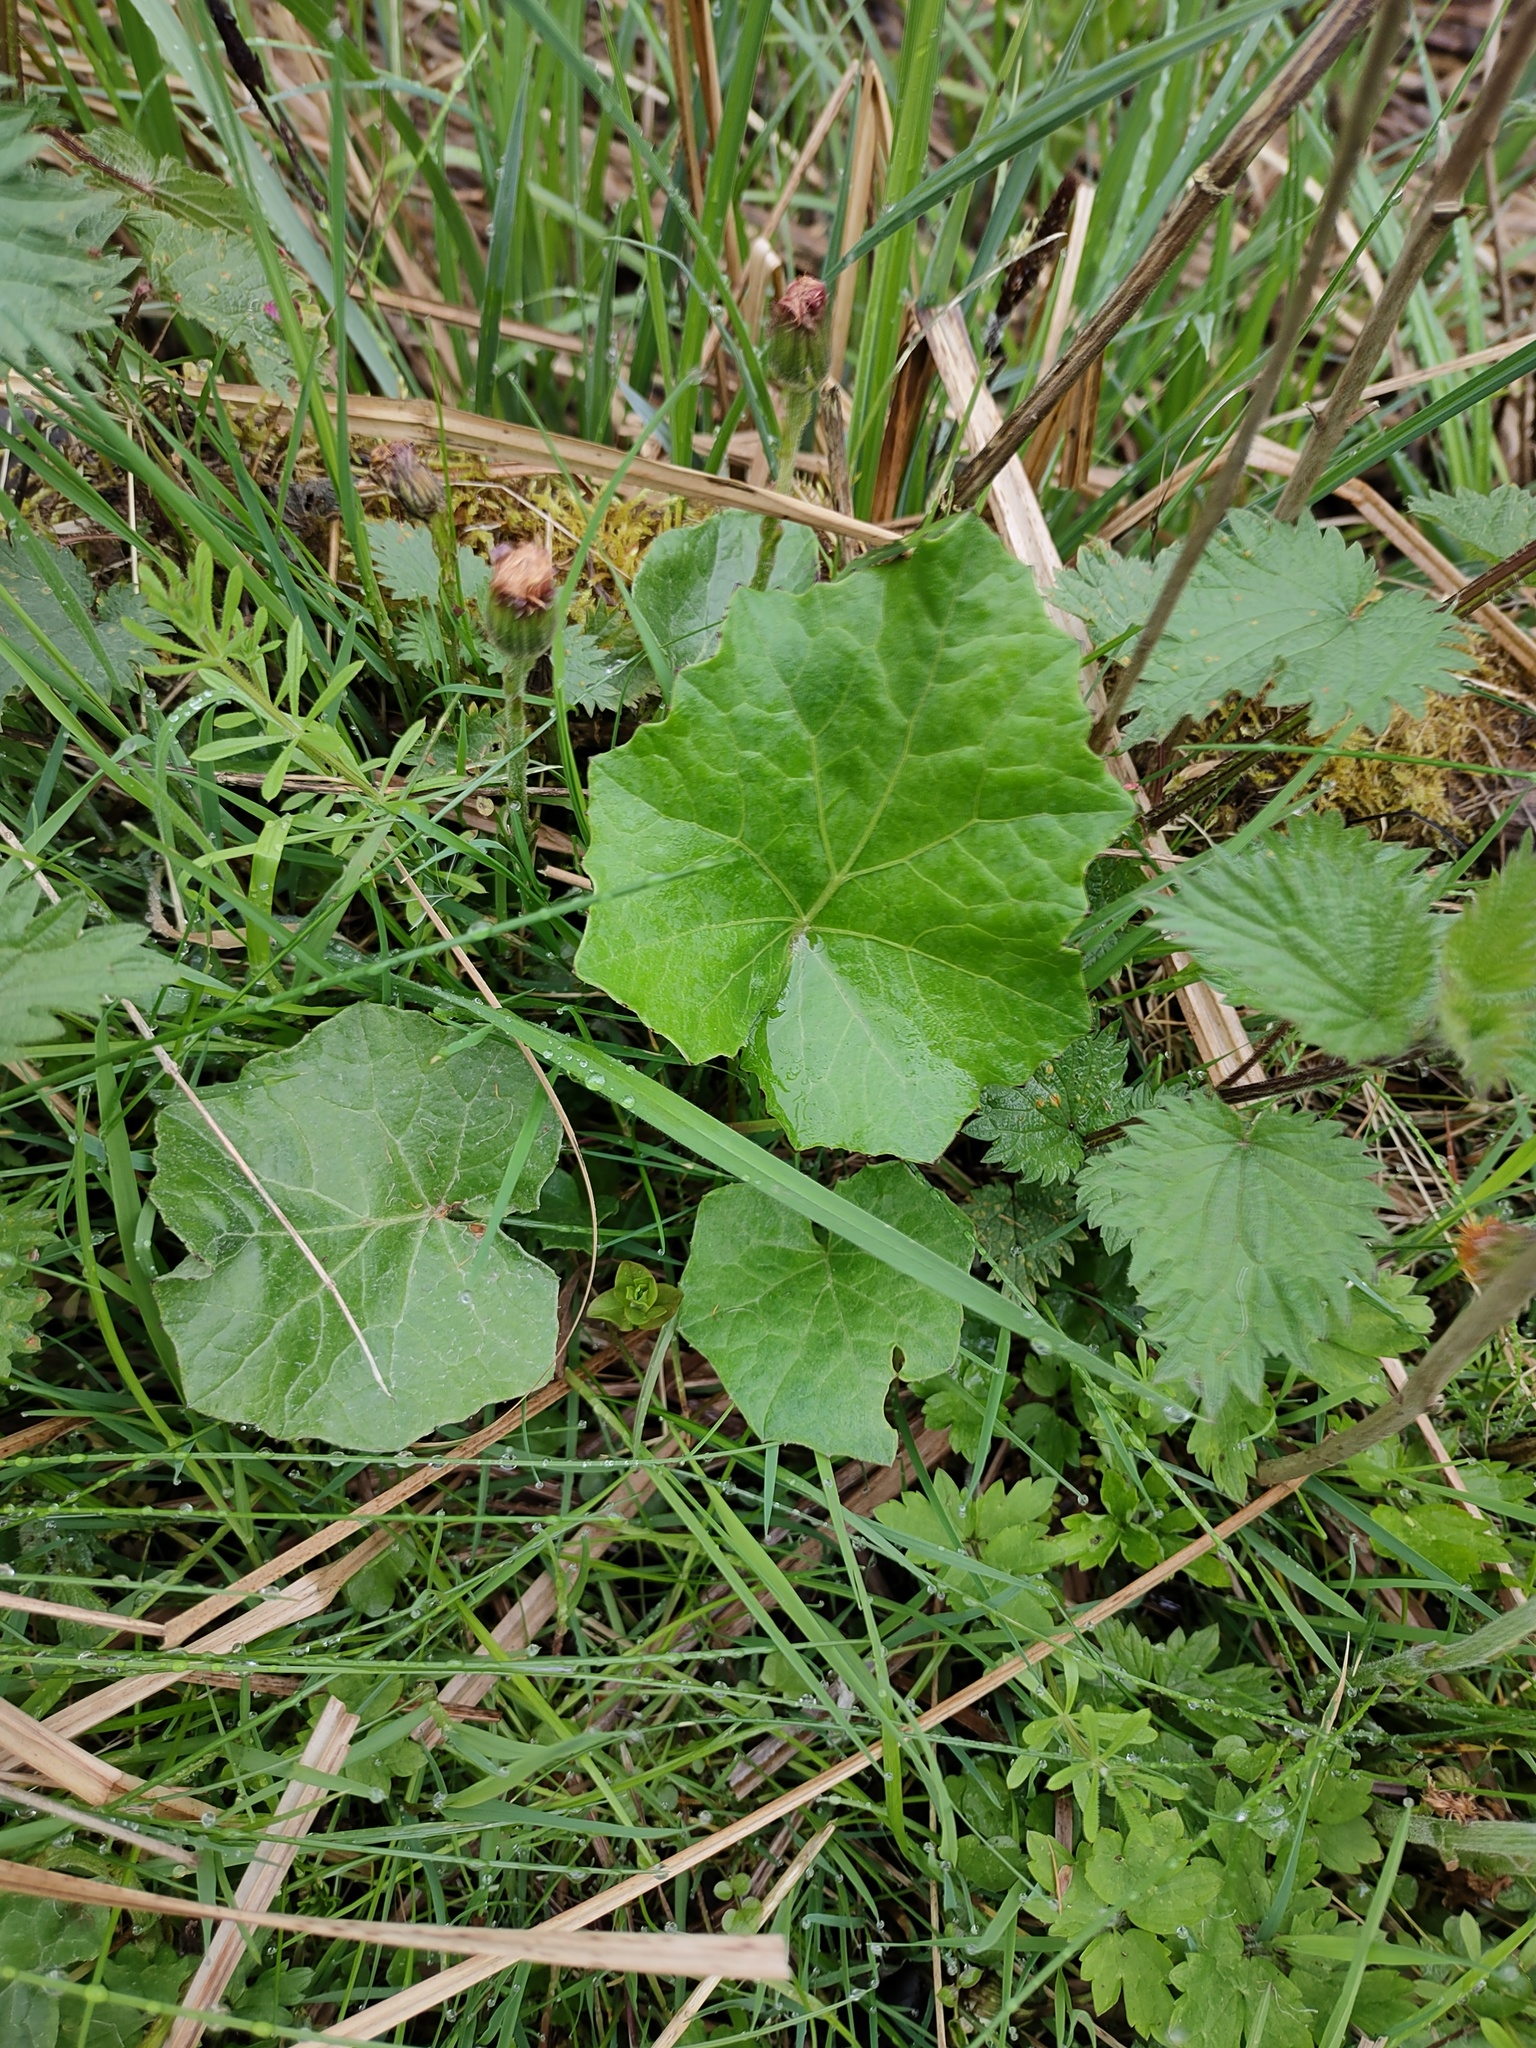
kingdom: Plantae
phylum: Tracheophyta
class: Magnoliopsida
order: Asterales
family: Asteraceae
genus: Tussilago
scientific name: Tussilago farfara
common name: Coltsfoot
